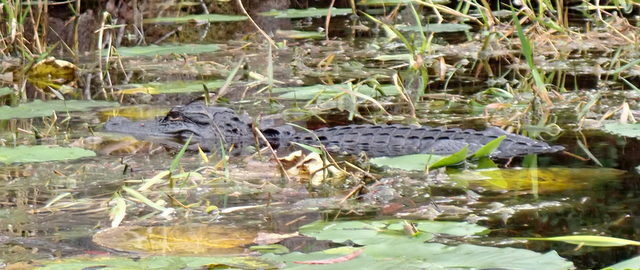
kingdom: Animalia
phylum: Chordata
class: Crocodylia
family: Alligatoridae
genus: Alligator
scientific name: Alligator mississippiensis
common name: American alligator
